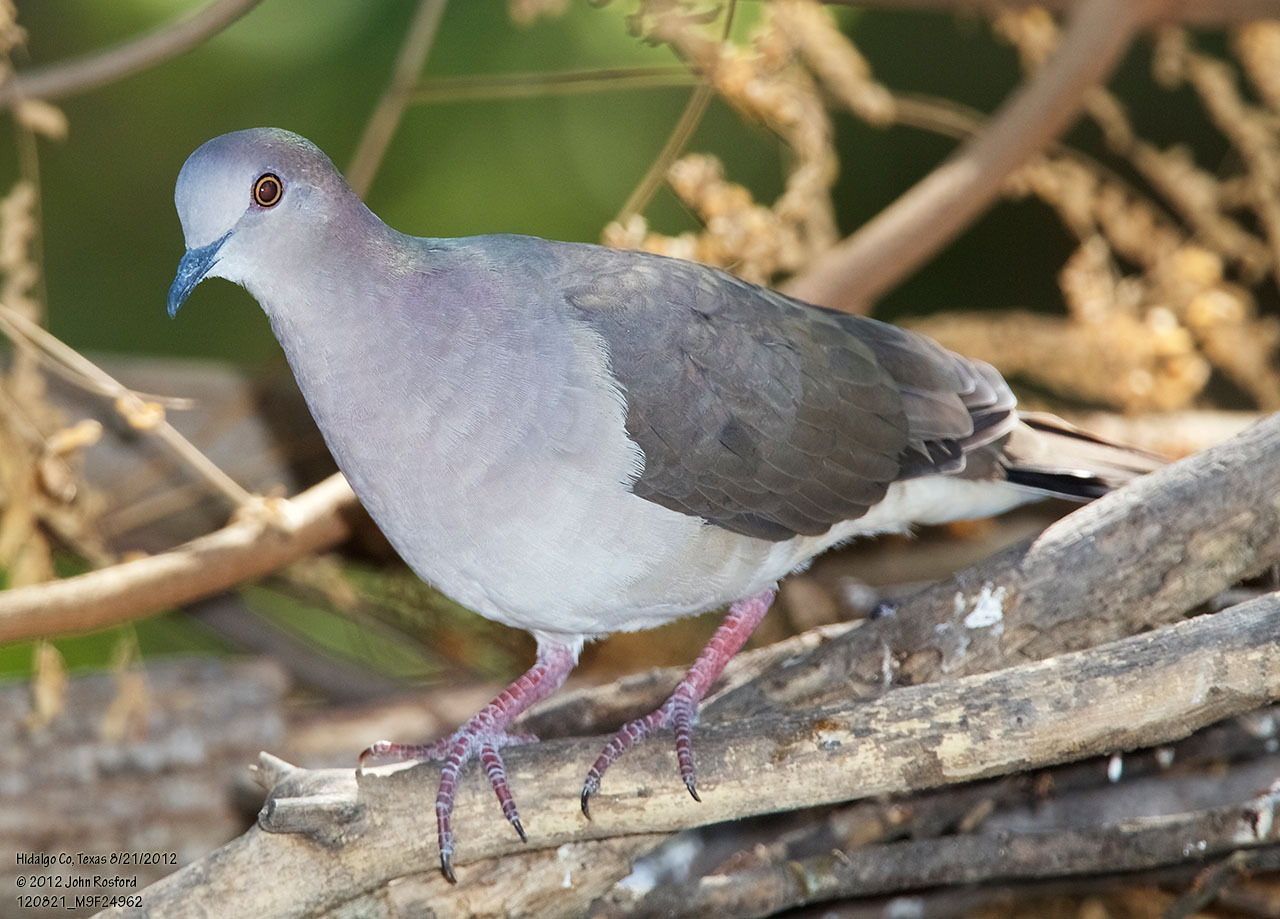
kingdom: Animalia
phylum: Chordata
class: Aves
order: Columbiformes
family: Columbidae
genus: Leptotila
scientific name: Leptotila verreauxi
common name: White-tipped dove
